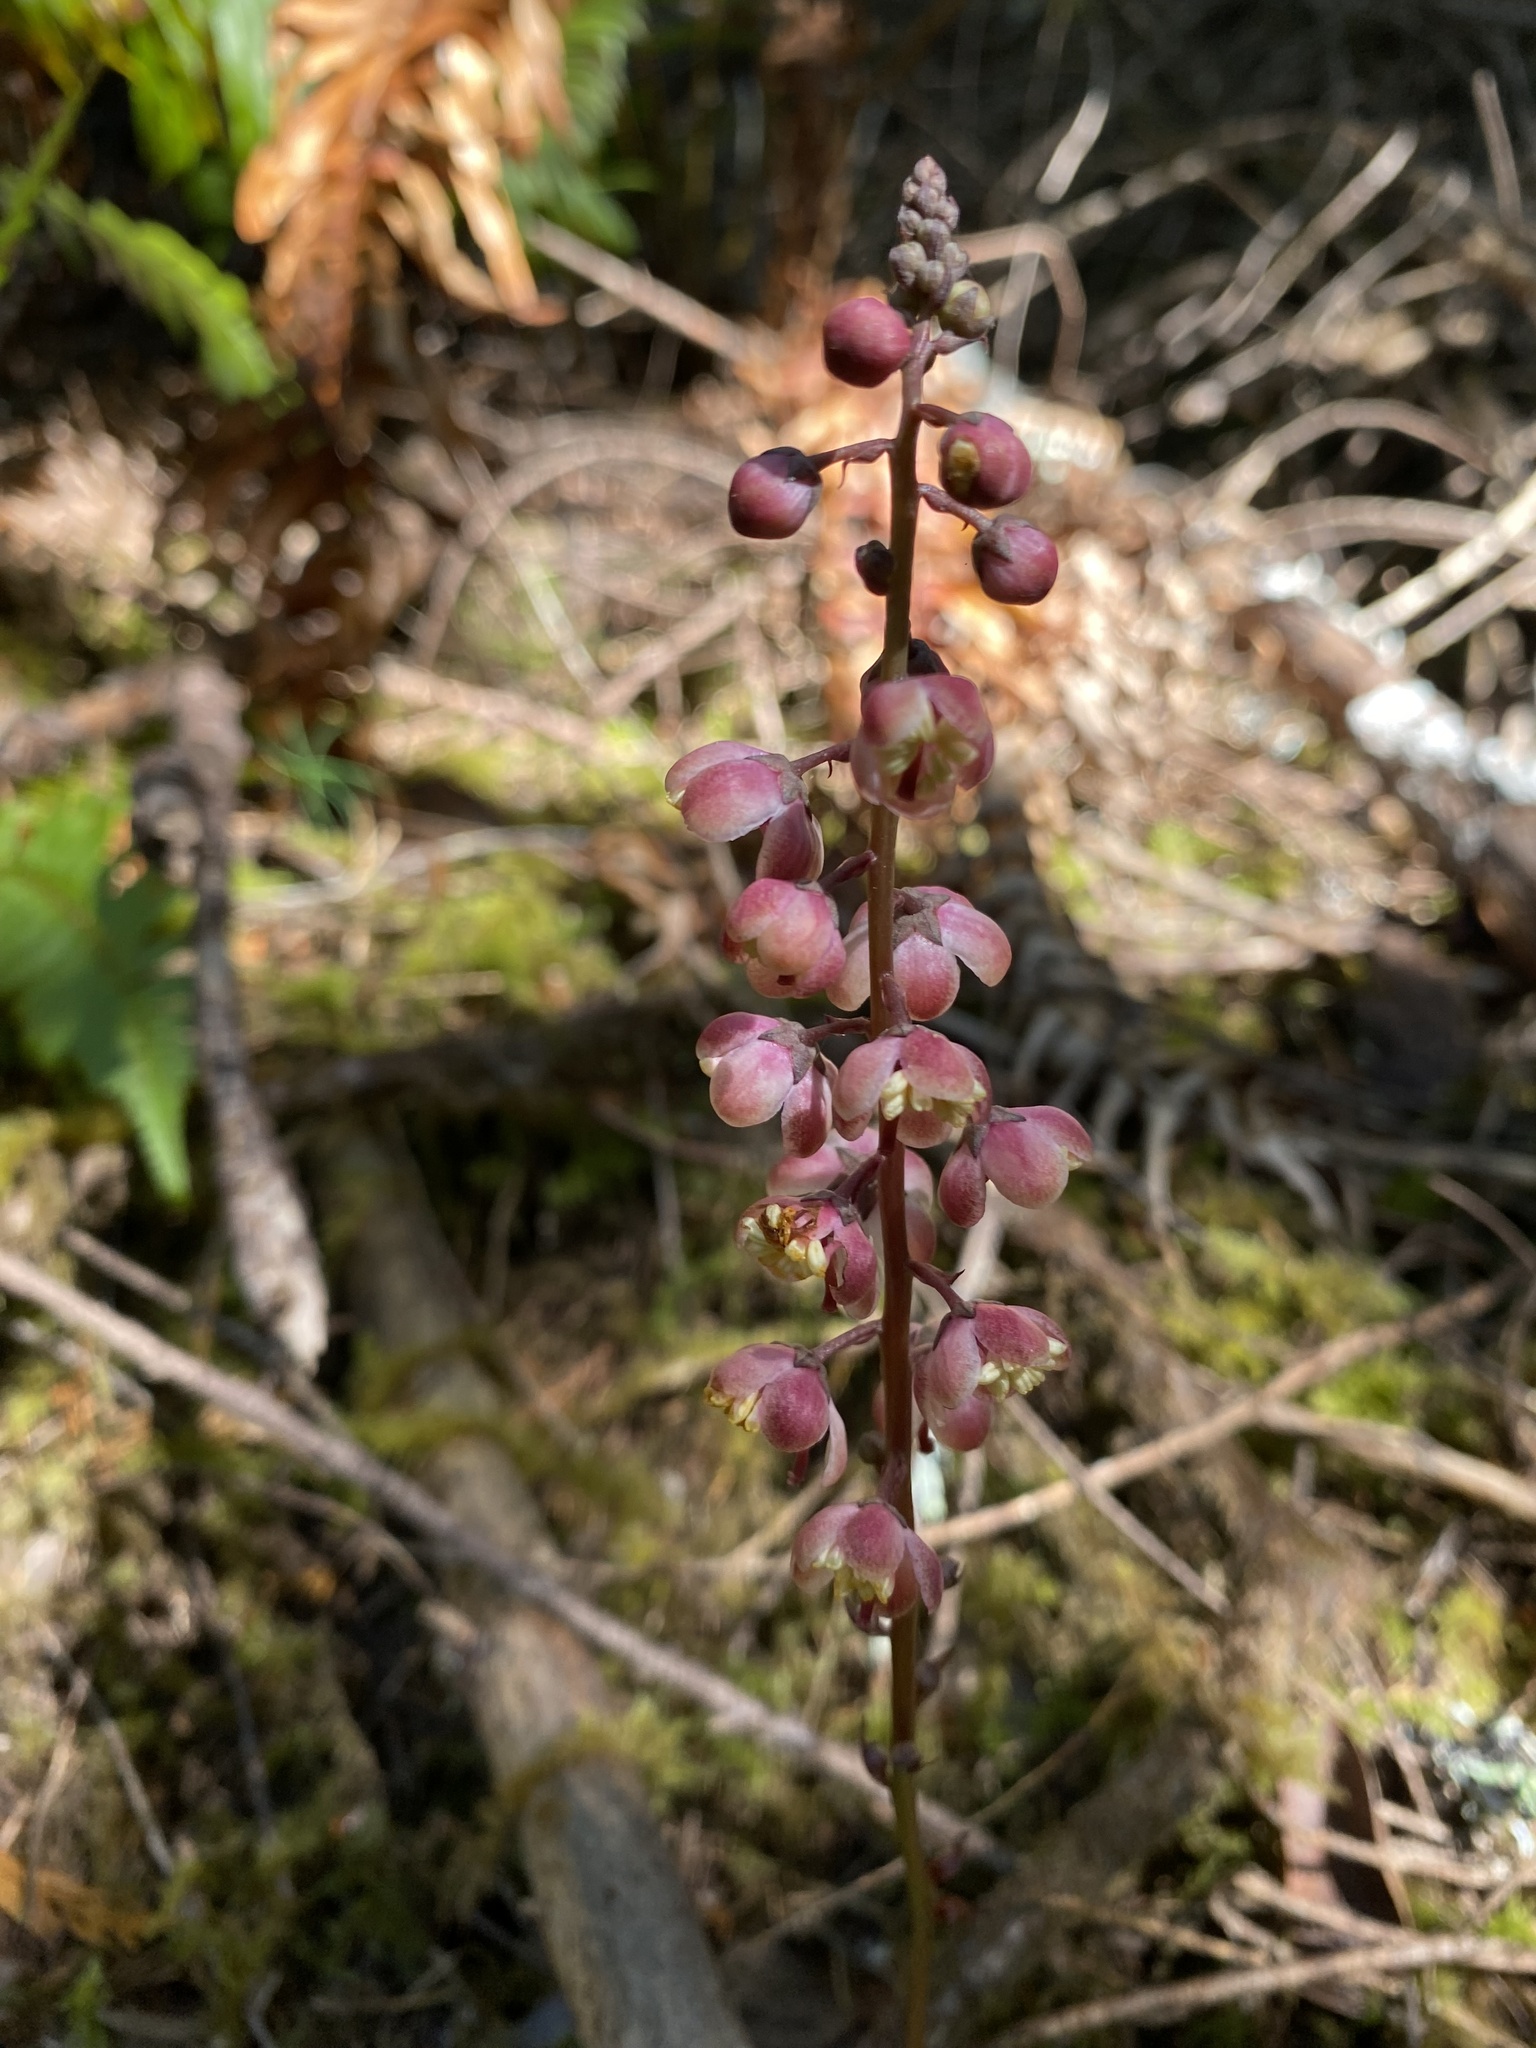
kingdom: Plantae
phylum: Tracheophyta
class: Magnoliopsida
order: Ericales
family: Ericaceae
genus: Pyrola
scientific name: Pyrola aphylla
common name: Leafless wintergreen
